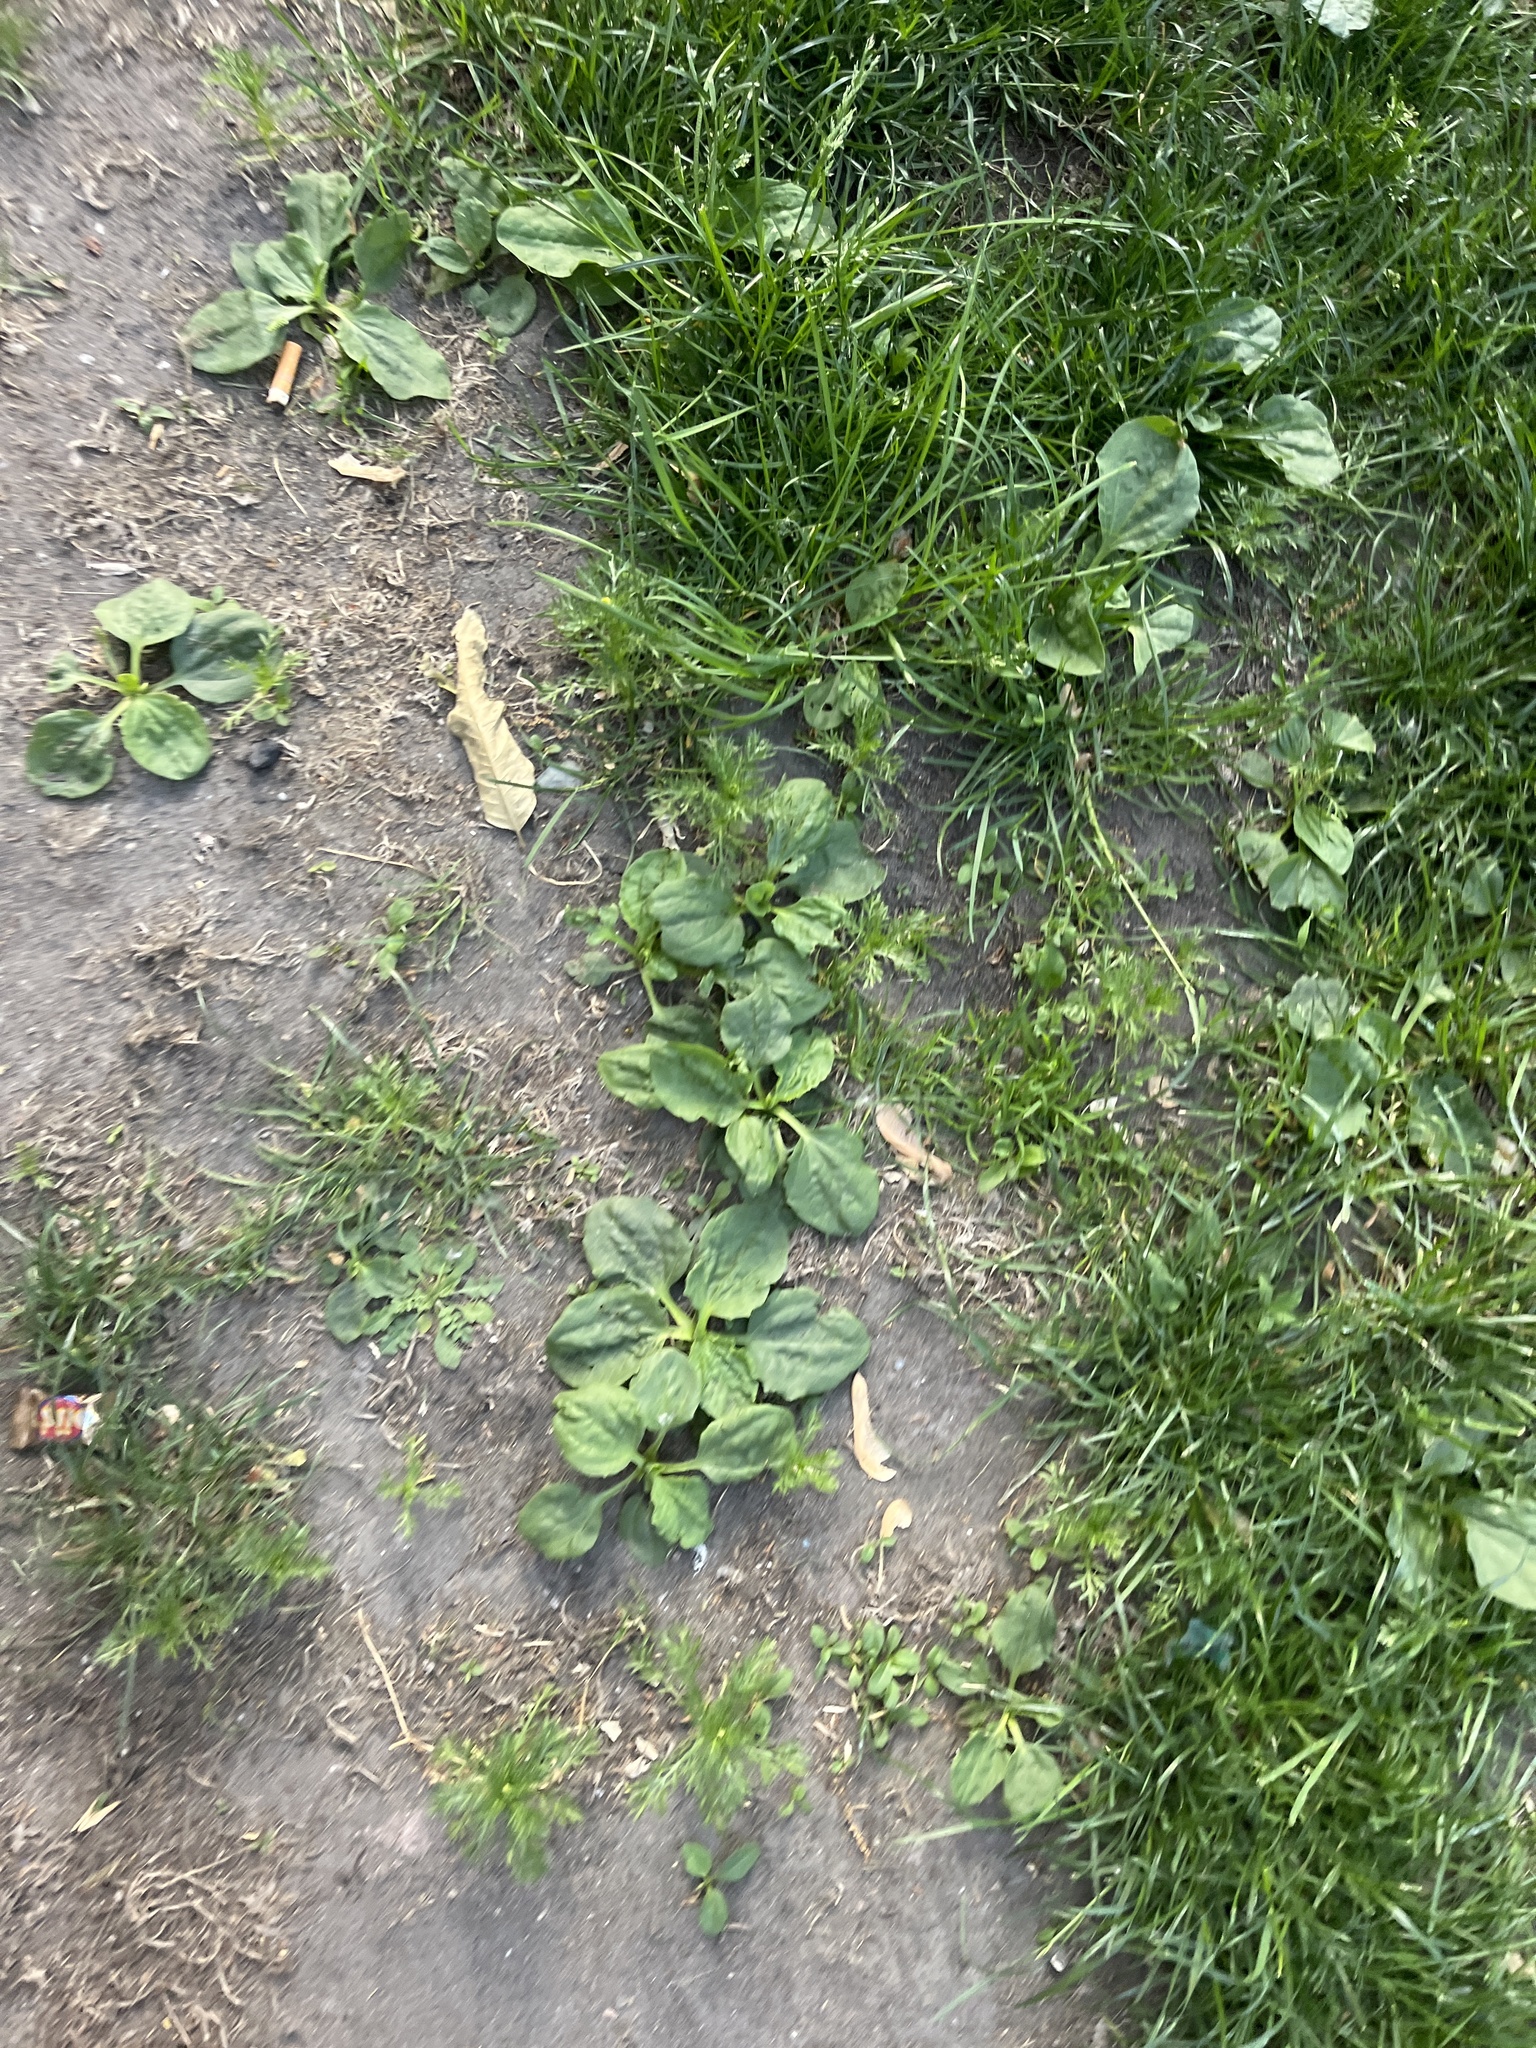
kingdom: Plantae
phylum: Tracheophyta
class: Magnoliopsida
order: Lamiales
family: Plantaginaceae
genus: Plantago
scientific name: Plantago major
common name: Common plantain
